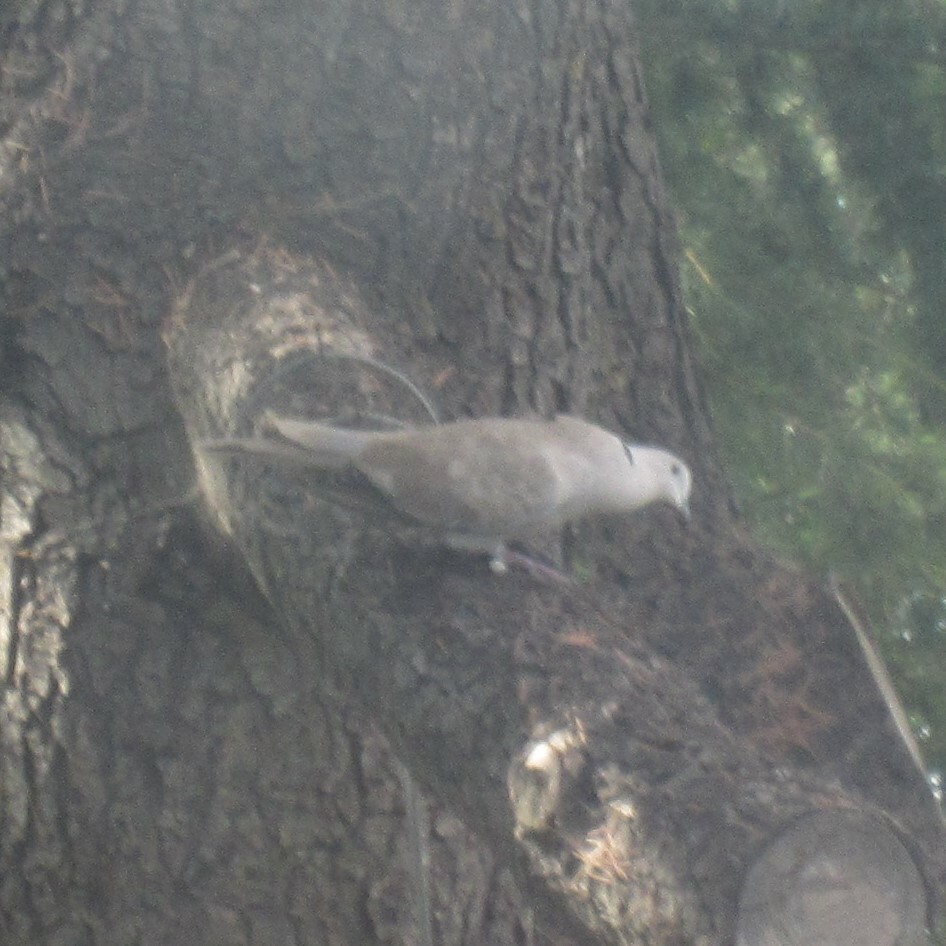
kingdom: Animalia
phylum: Chordata
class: Aves
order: Columbiformes
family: Columbidae
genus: Streptopelia
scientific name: Streptopelia decaocto
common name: Eurasian collared dove
